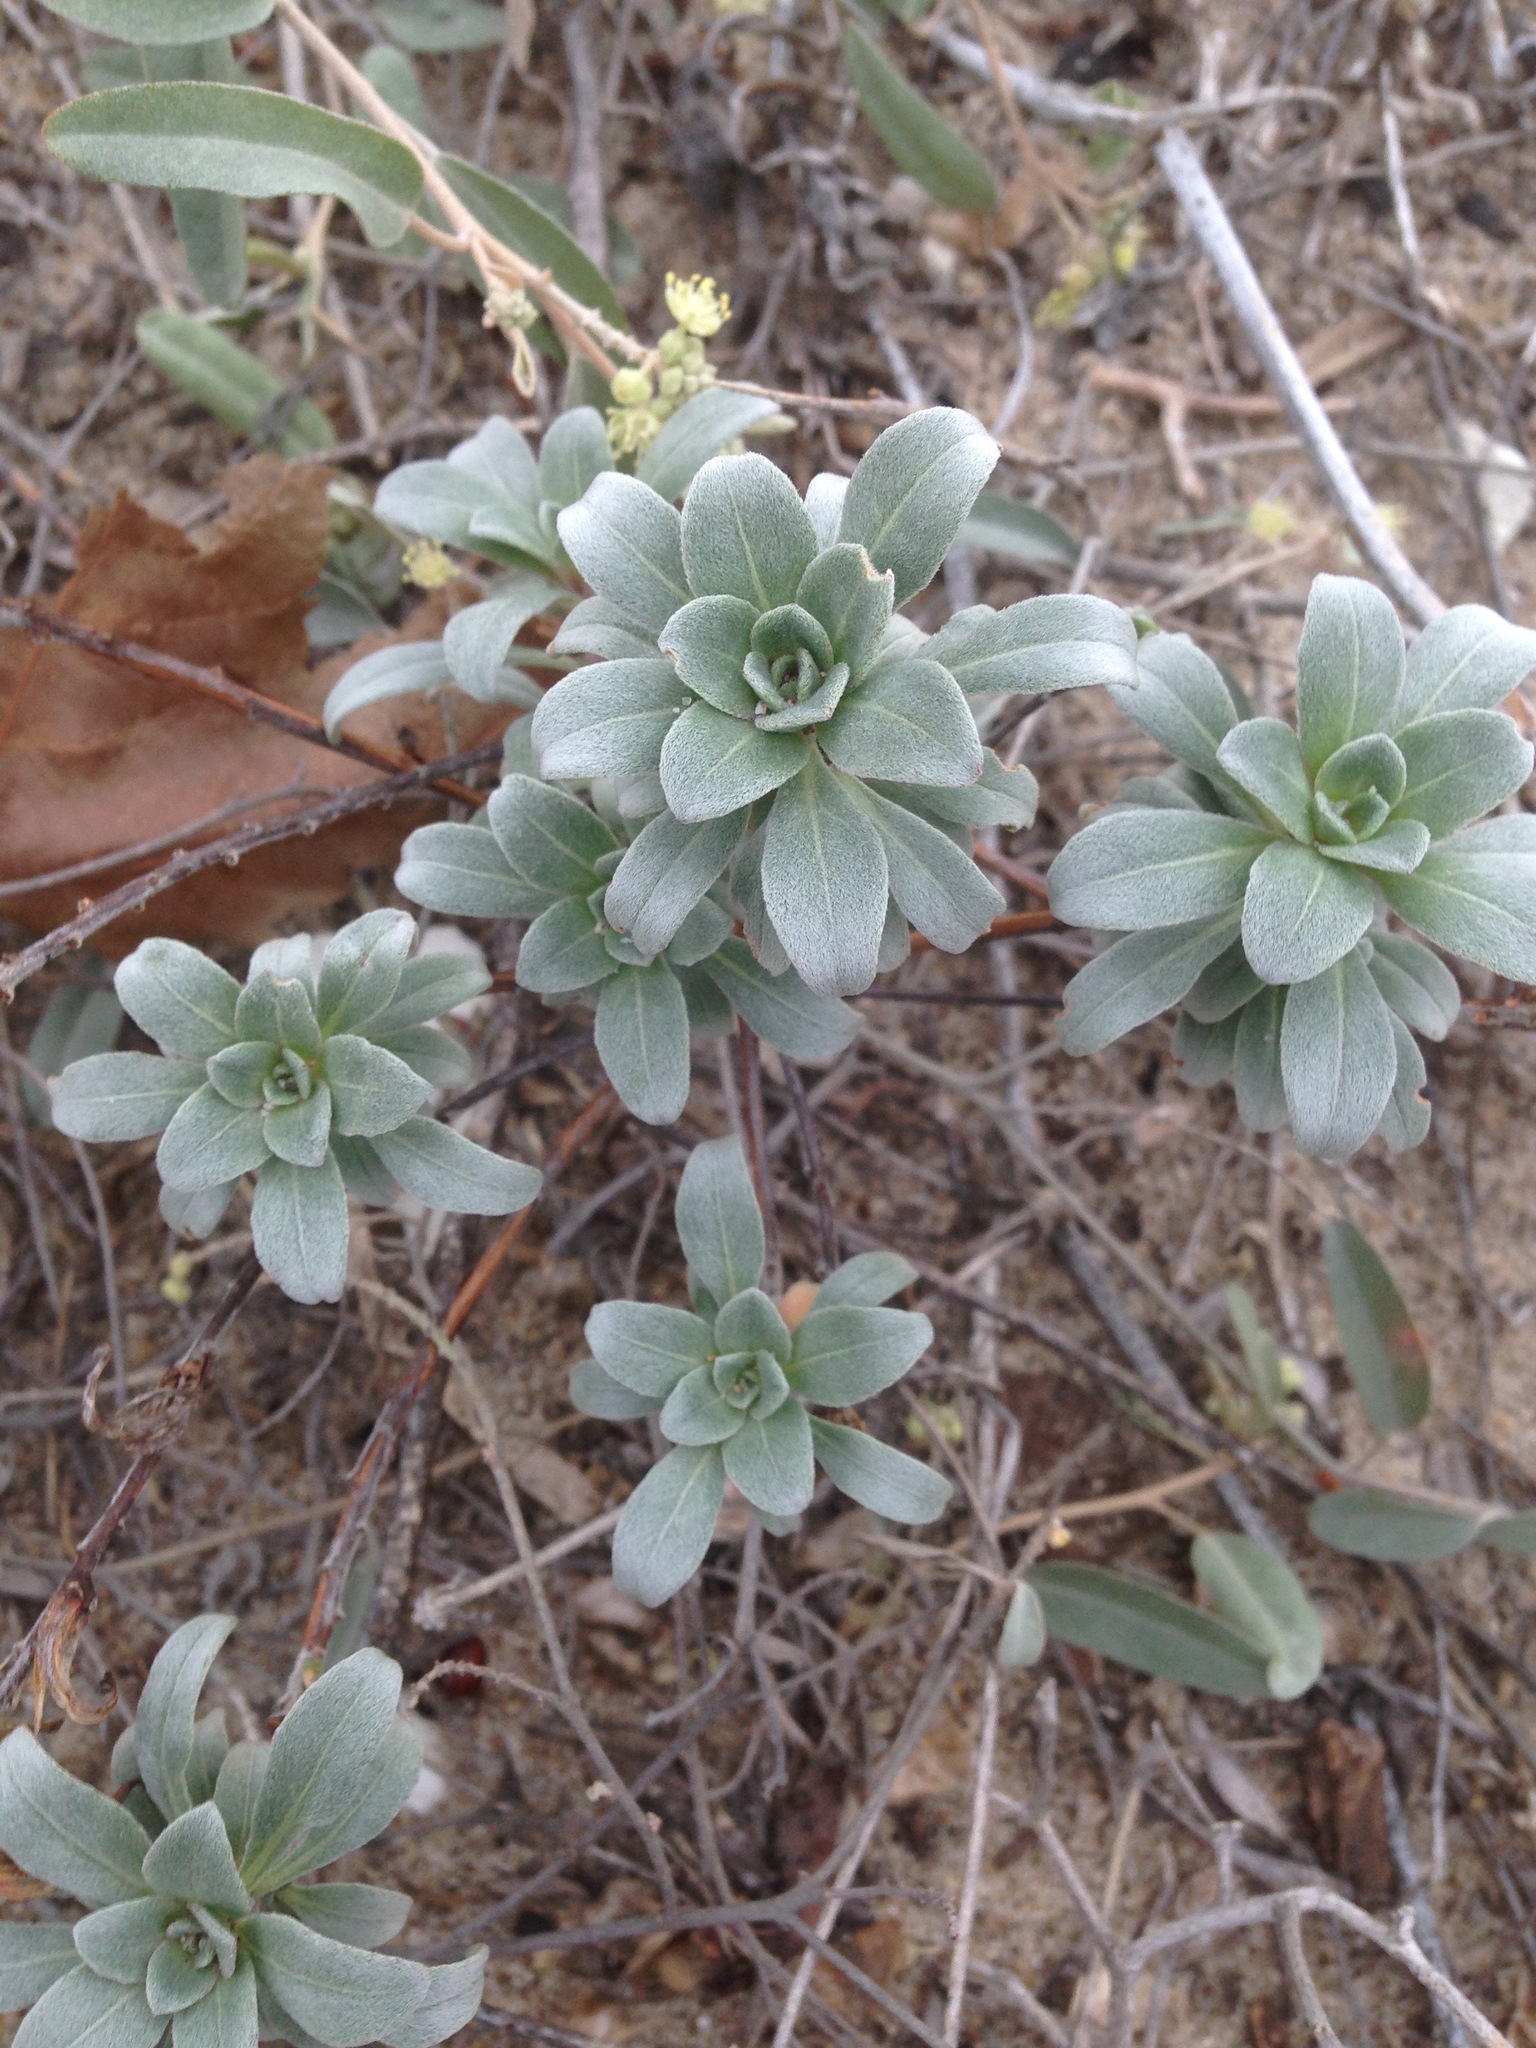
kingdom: Plantae
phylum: Tracheophyta
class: Magnoliopsida
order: Myrtales
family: Onagraceae
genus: Camissoniopsis
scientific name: Camissoniopsis cheiranthifolia
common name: Beach suncup
